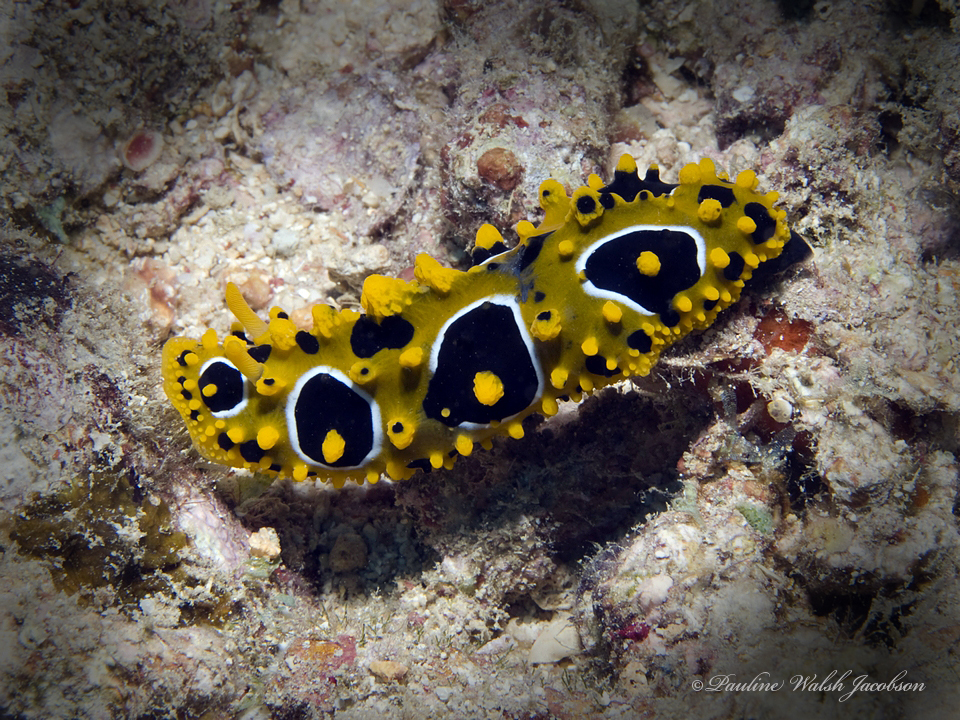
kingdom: Animalia
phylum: Mollusca
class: Gastropoda
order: Nudibranchia
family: Phyllidiidae
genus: Phyllidia
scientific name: Phyllidia ocellata
